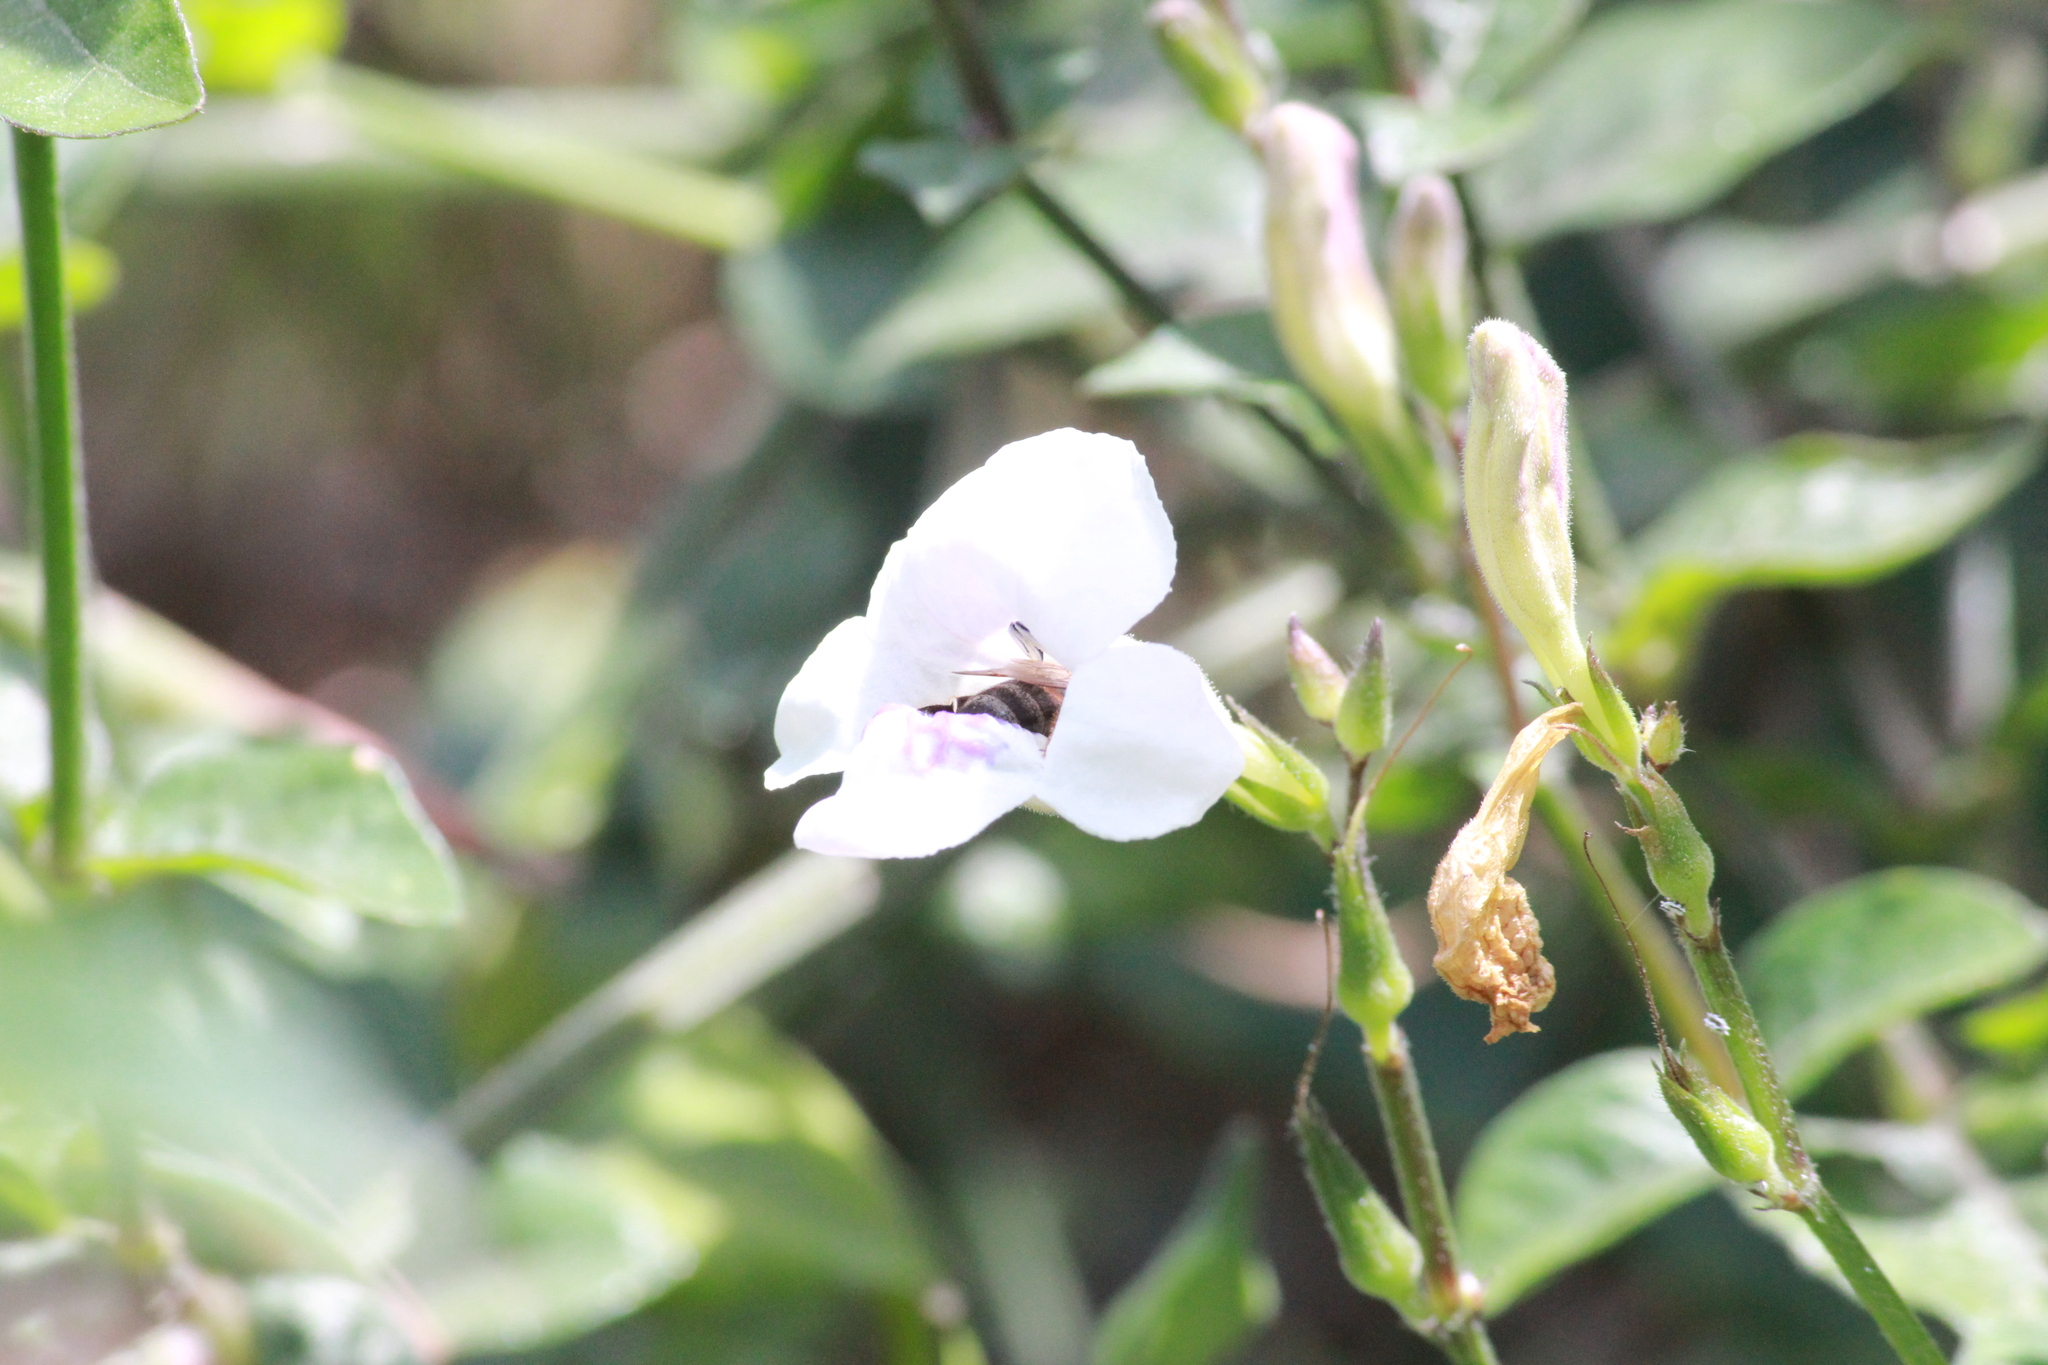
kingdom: Animalia
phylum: Arthropoda
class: Insecta
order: Hymenoptera
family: Apidae
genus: Apis
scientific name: Apis mellifera
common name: Honey bee
